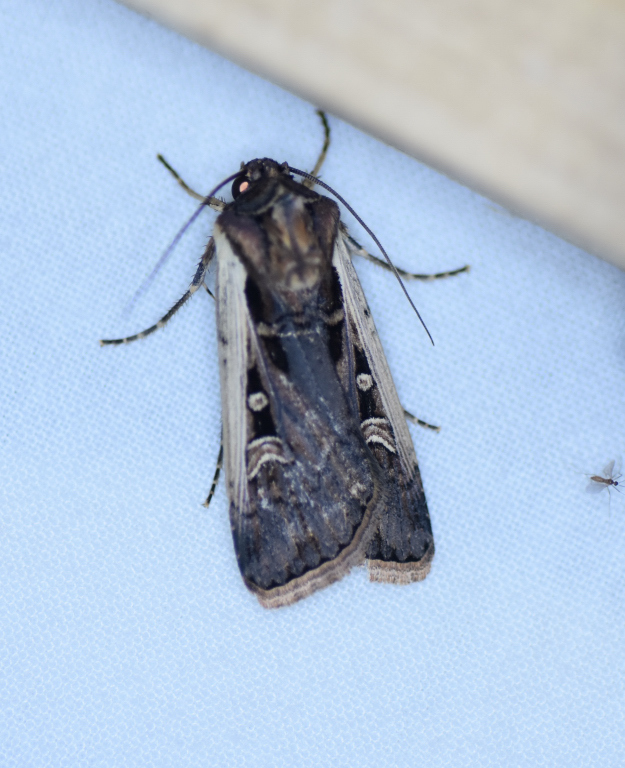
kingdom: Animalia
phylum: Arthropoda
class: Insecta
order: Lepidoptera
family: Noctuidae
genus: Striacosta
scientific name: Striacosta albicosta
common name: Western bean cutworm moth
